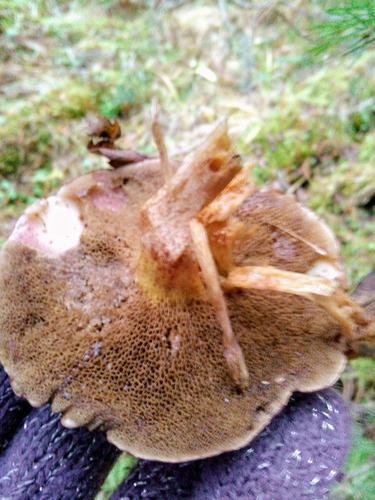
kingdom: Fungi
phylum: Basidiomycota
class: Agaricomycetes
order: Boletales
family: Suillaceae
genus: Suillus
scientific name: Suillus bovinus
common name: Bovine bolete
